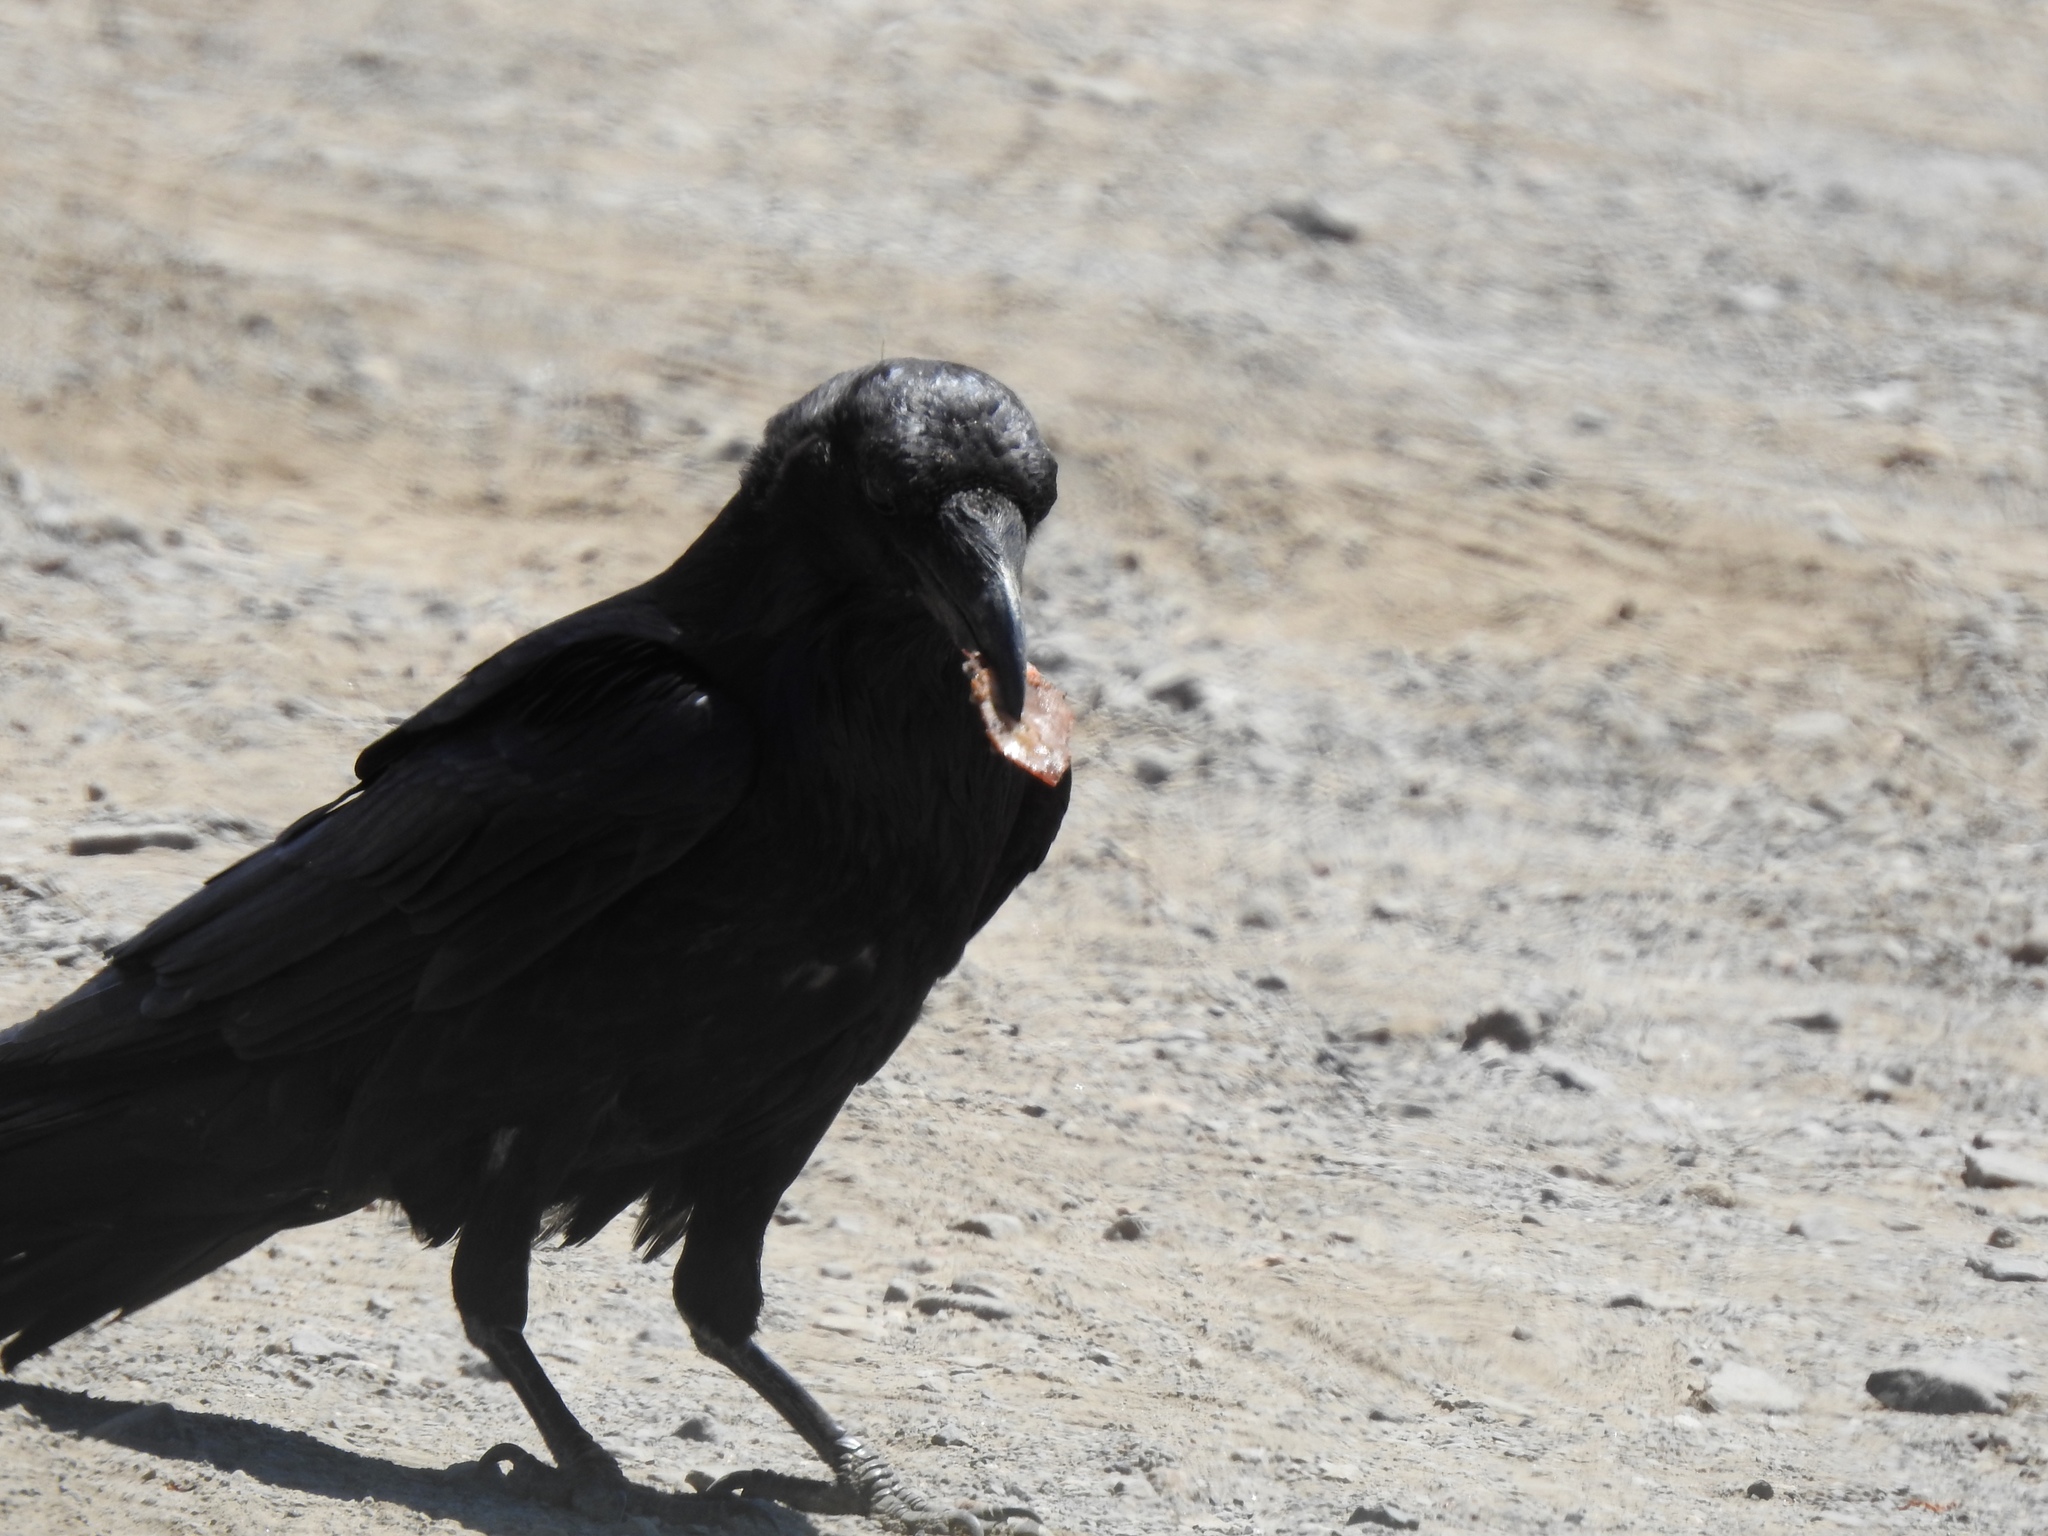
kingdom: Animalia
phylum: Chordata
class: Aves
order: Passeriformes
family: Corvidae
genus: Corvus
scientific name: Corvus corax
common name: Common raven
